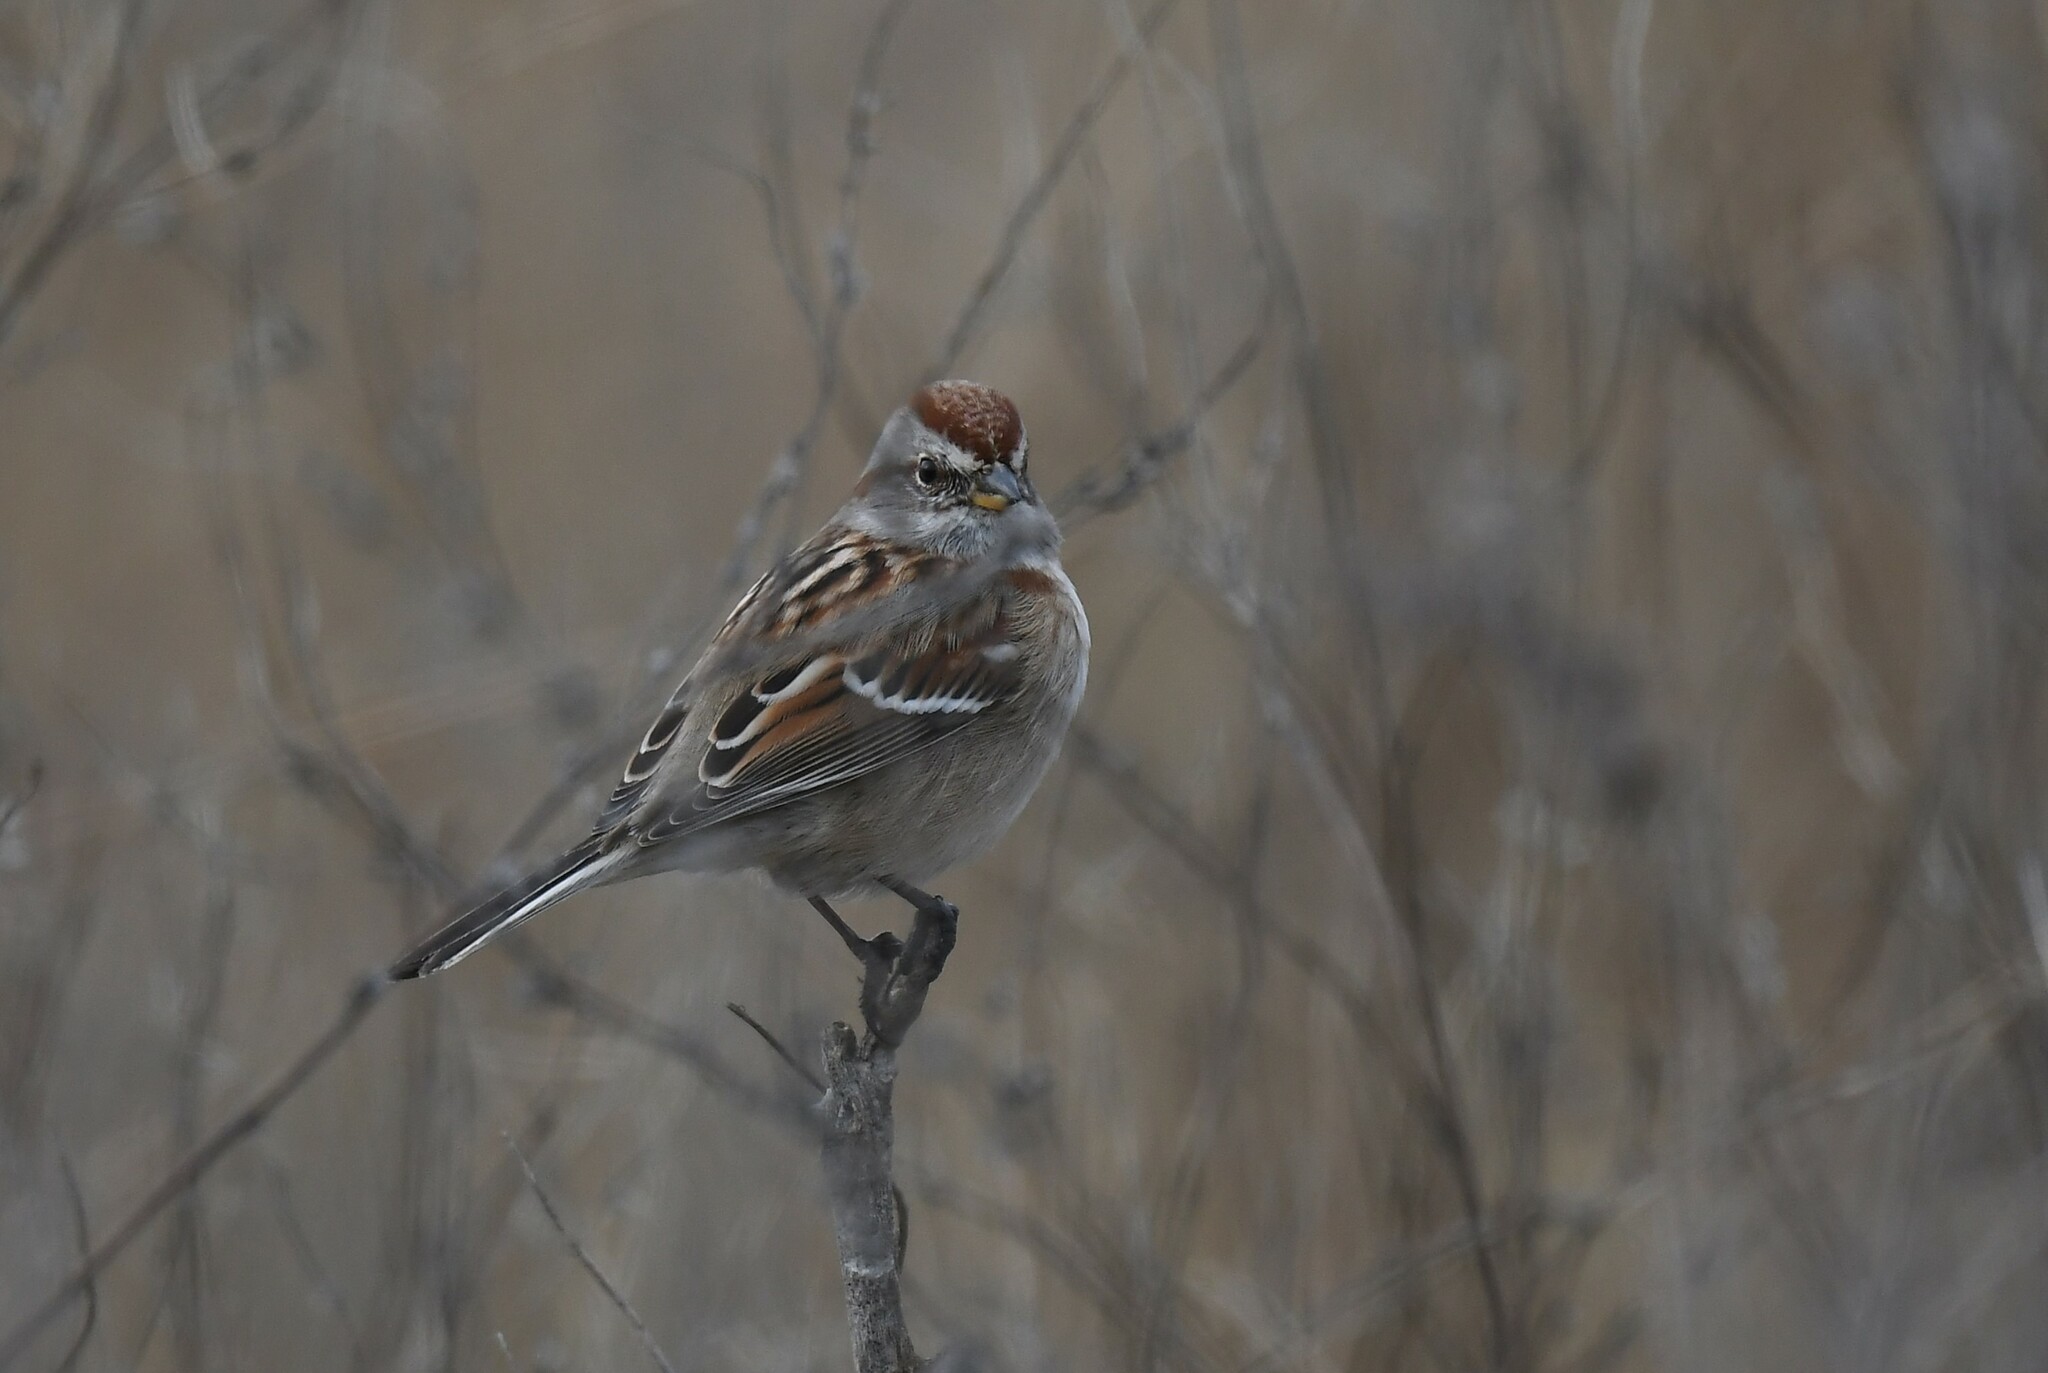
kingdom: Animalia
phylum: Chordata
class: Aves
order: Passeriformes
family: Passerellidae
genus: Spizelloides
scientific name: Spizelloides arborea
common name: American tree sparrow
